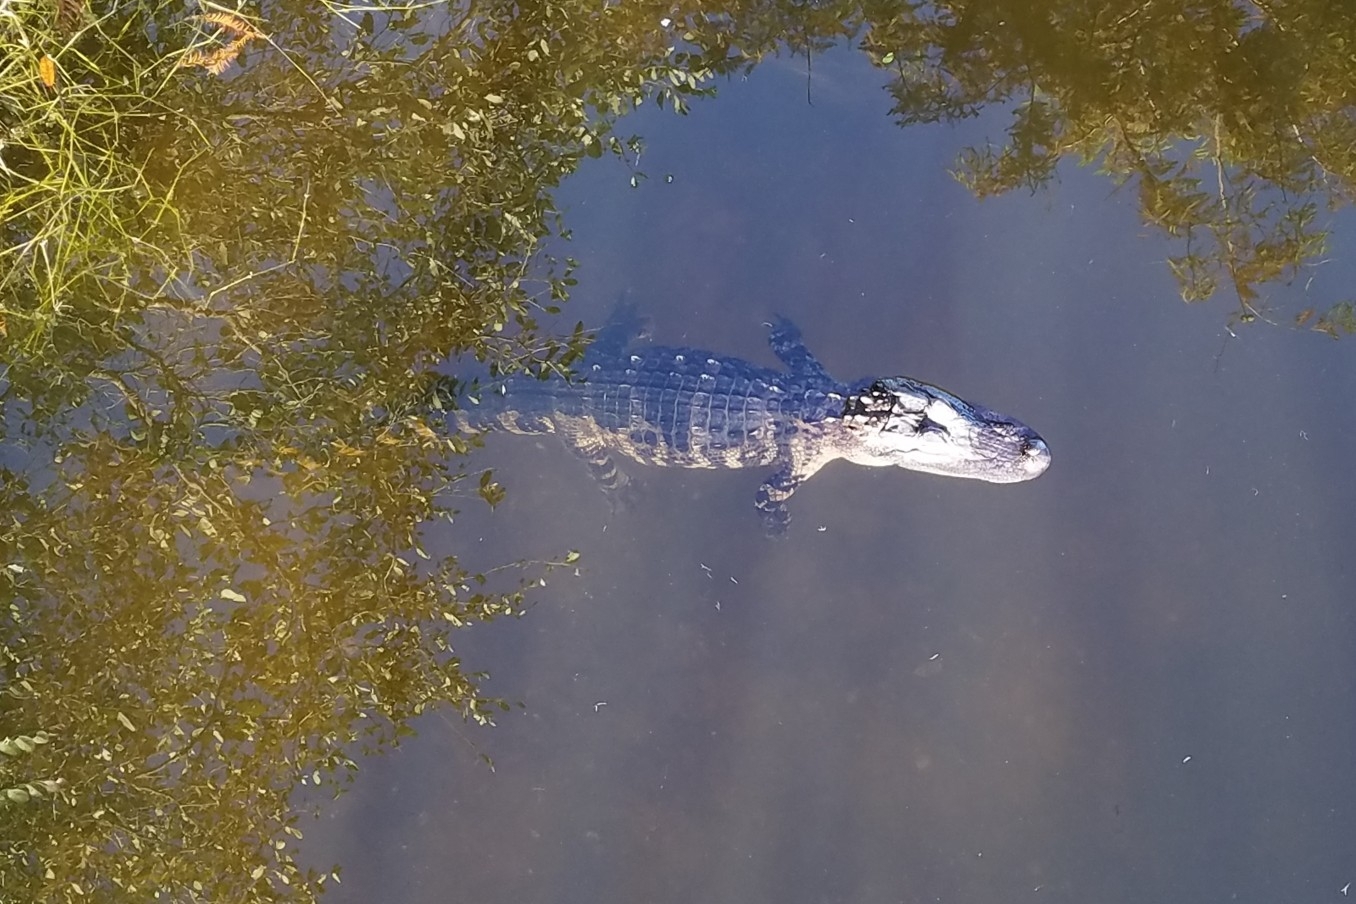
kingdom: Animalia
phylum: Chordata
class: Crocodylia
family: Alligatoridae
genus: Alligator
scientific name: Alligator mississippiensis
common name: American alligator
